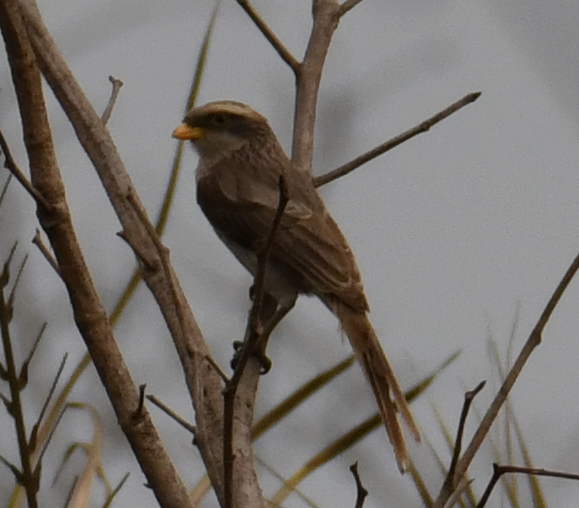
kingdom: Animalia
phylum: Chordata
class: Aves
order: Passeriformes
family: Laniidae
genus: Corvinella
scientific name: Corvinella corvina
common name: Yellow-billed shrike
